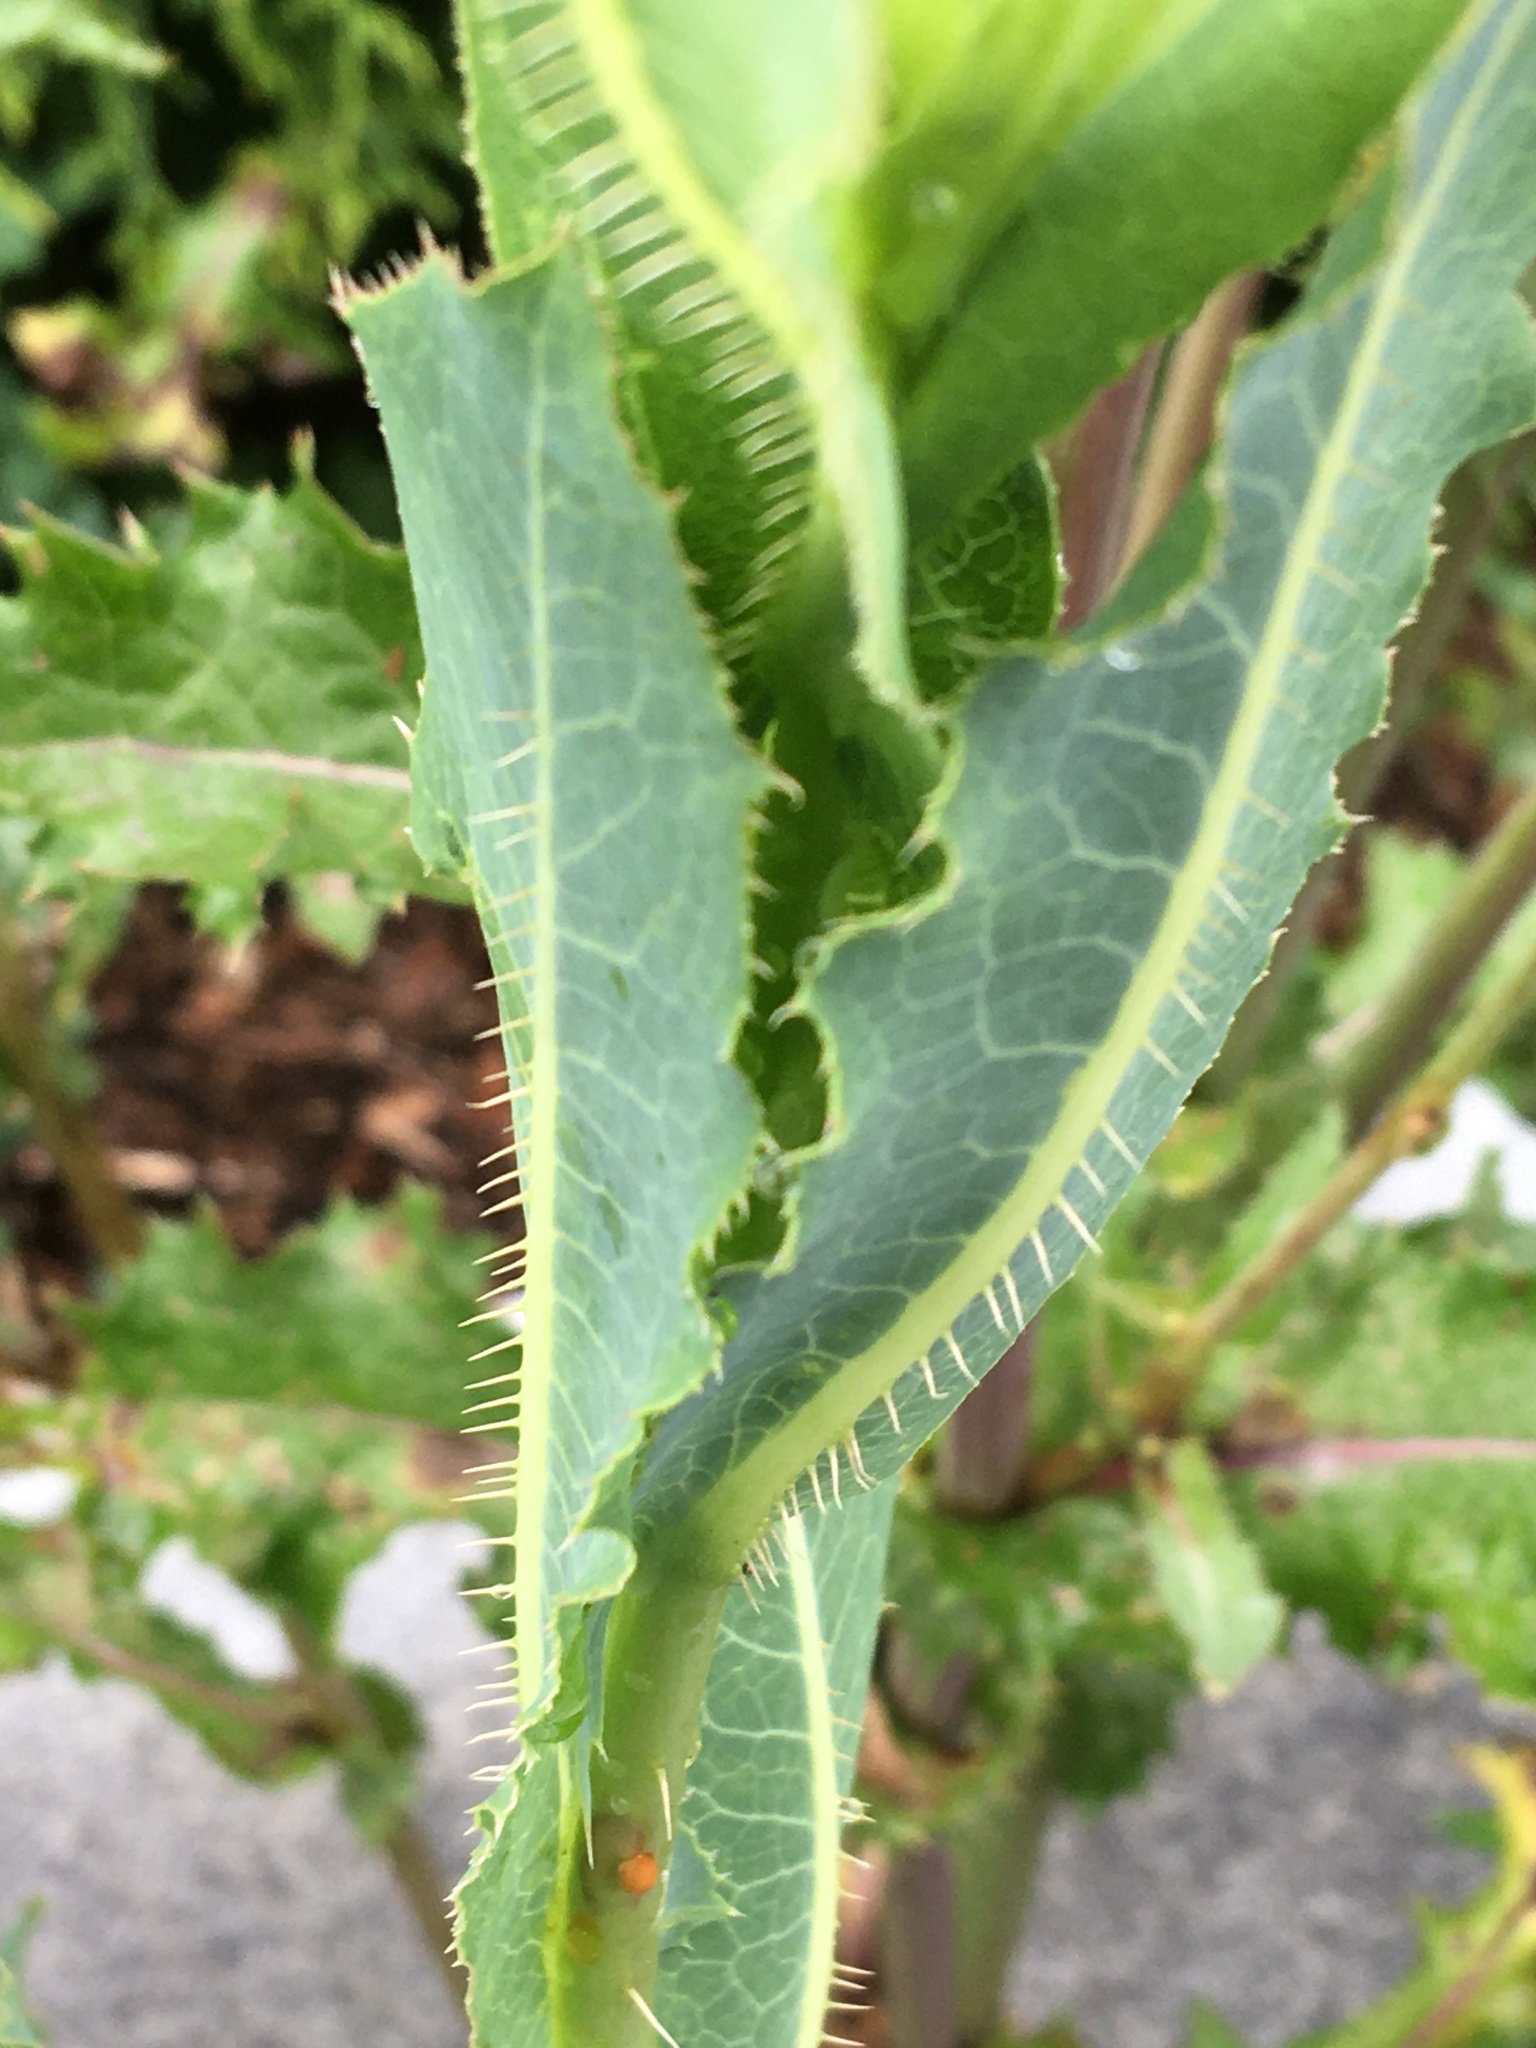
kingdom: Plantae
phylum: Tracheophyta
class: Magnoliopsida
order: Asterales
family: Asteraceae
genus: Lactuca
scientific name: Lactuca serriola
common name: Prickly lettuce
